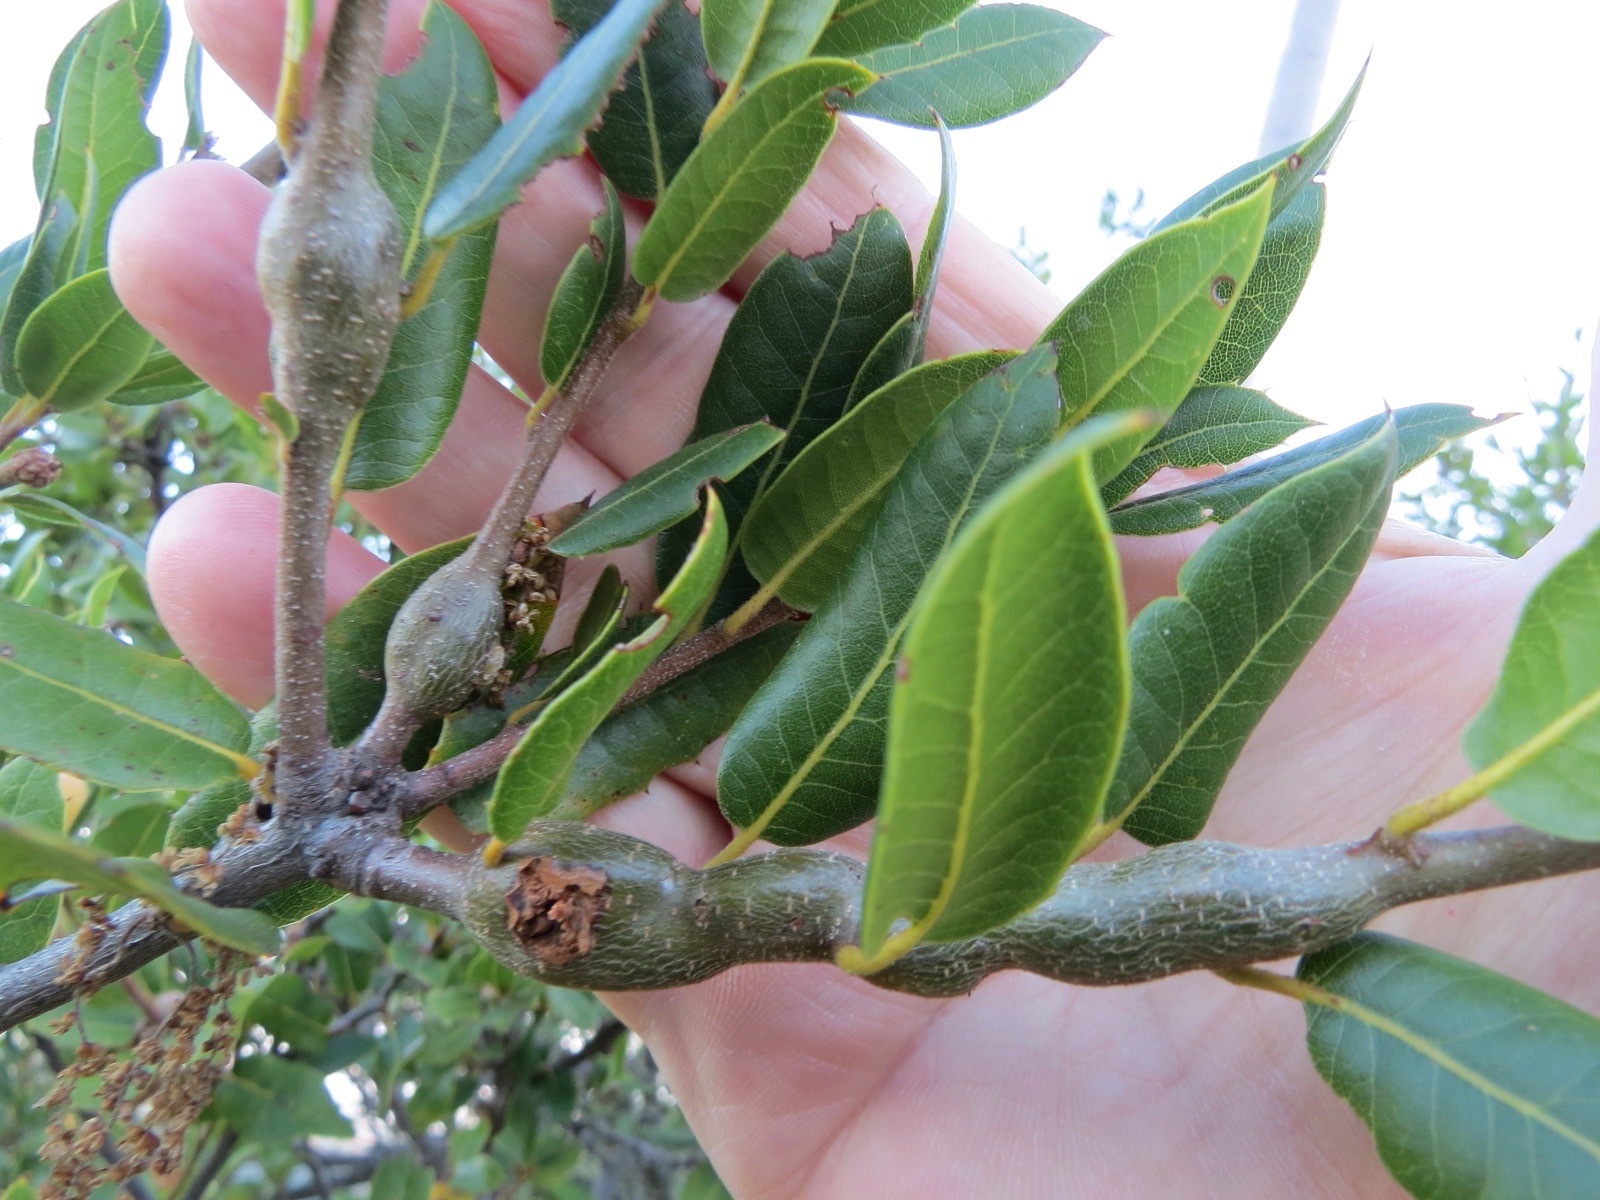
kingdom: Animalia
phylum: Arthropoda
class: Insecta
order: Hymenoptera
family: Cynipidae
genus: Callirhytis
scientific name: Callirhytis
